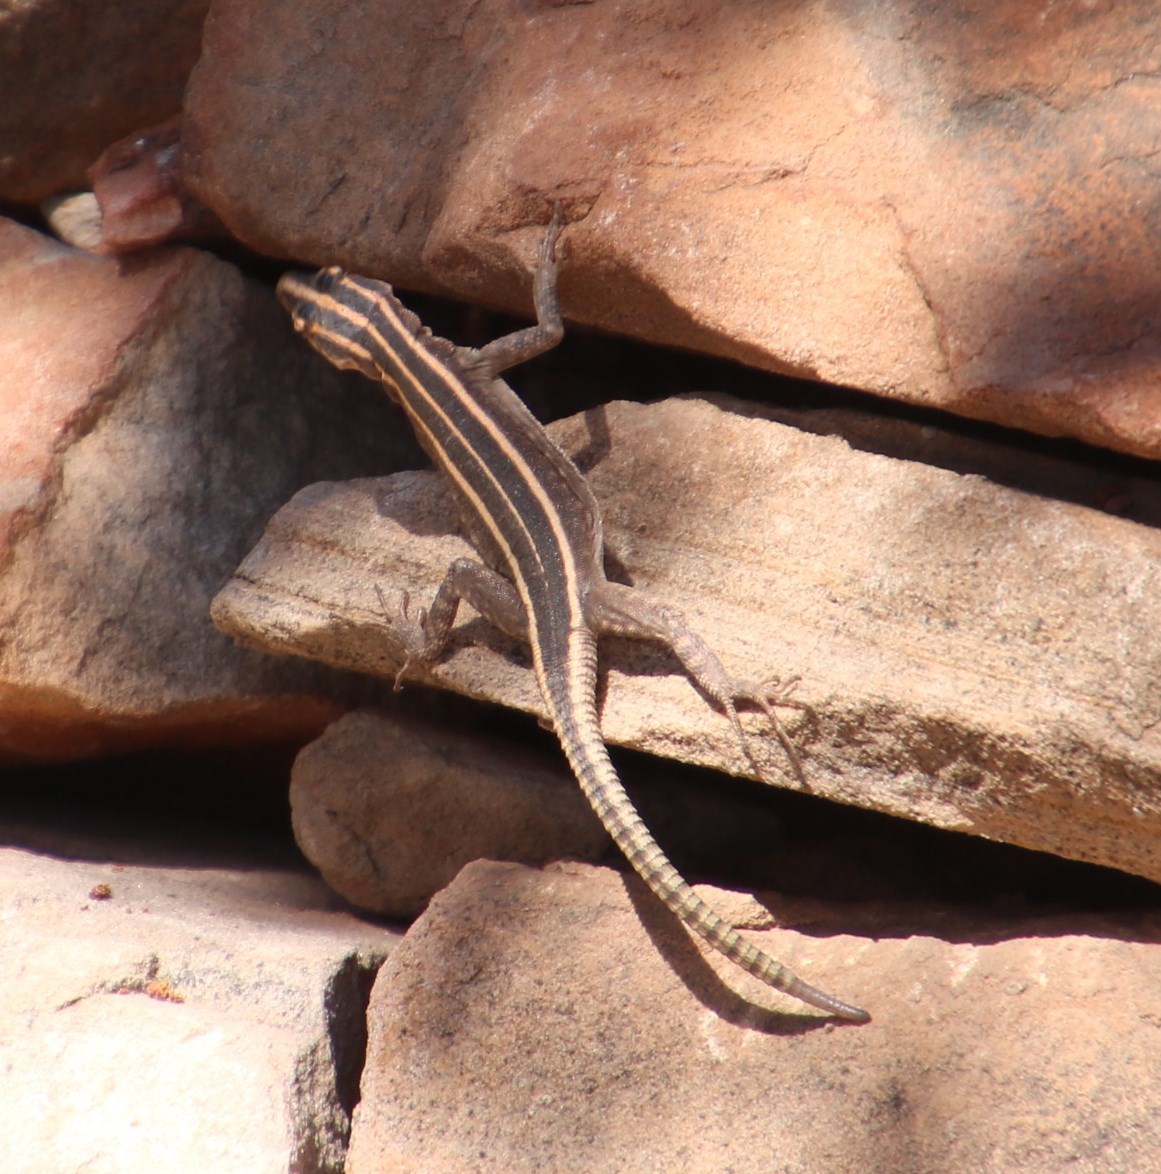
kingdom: Animalia
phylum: Chordata
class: Squamata
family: Cordylidae
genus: Platysaurus
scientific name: Platysaurus intermedius
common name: Common flat lizard
